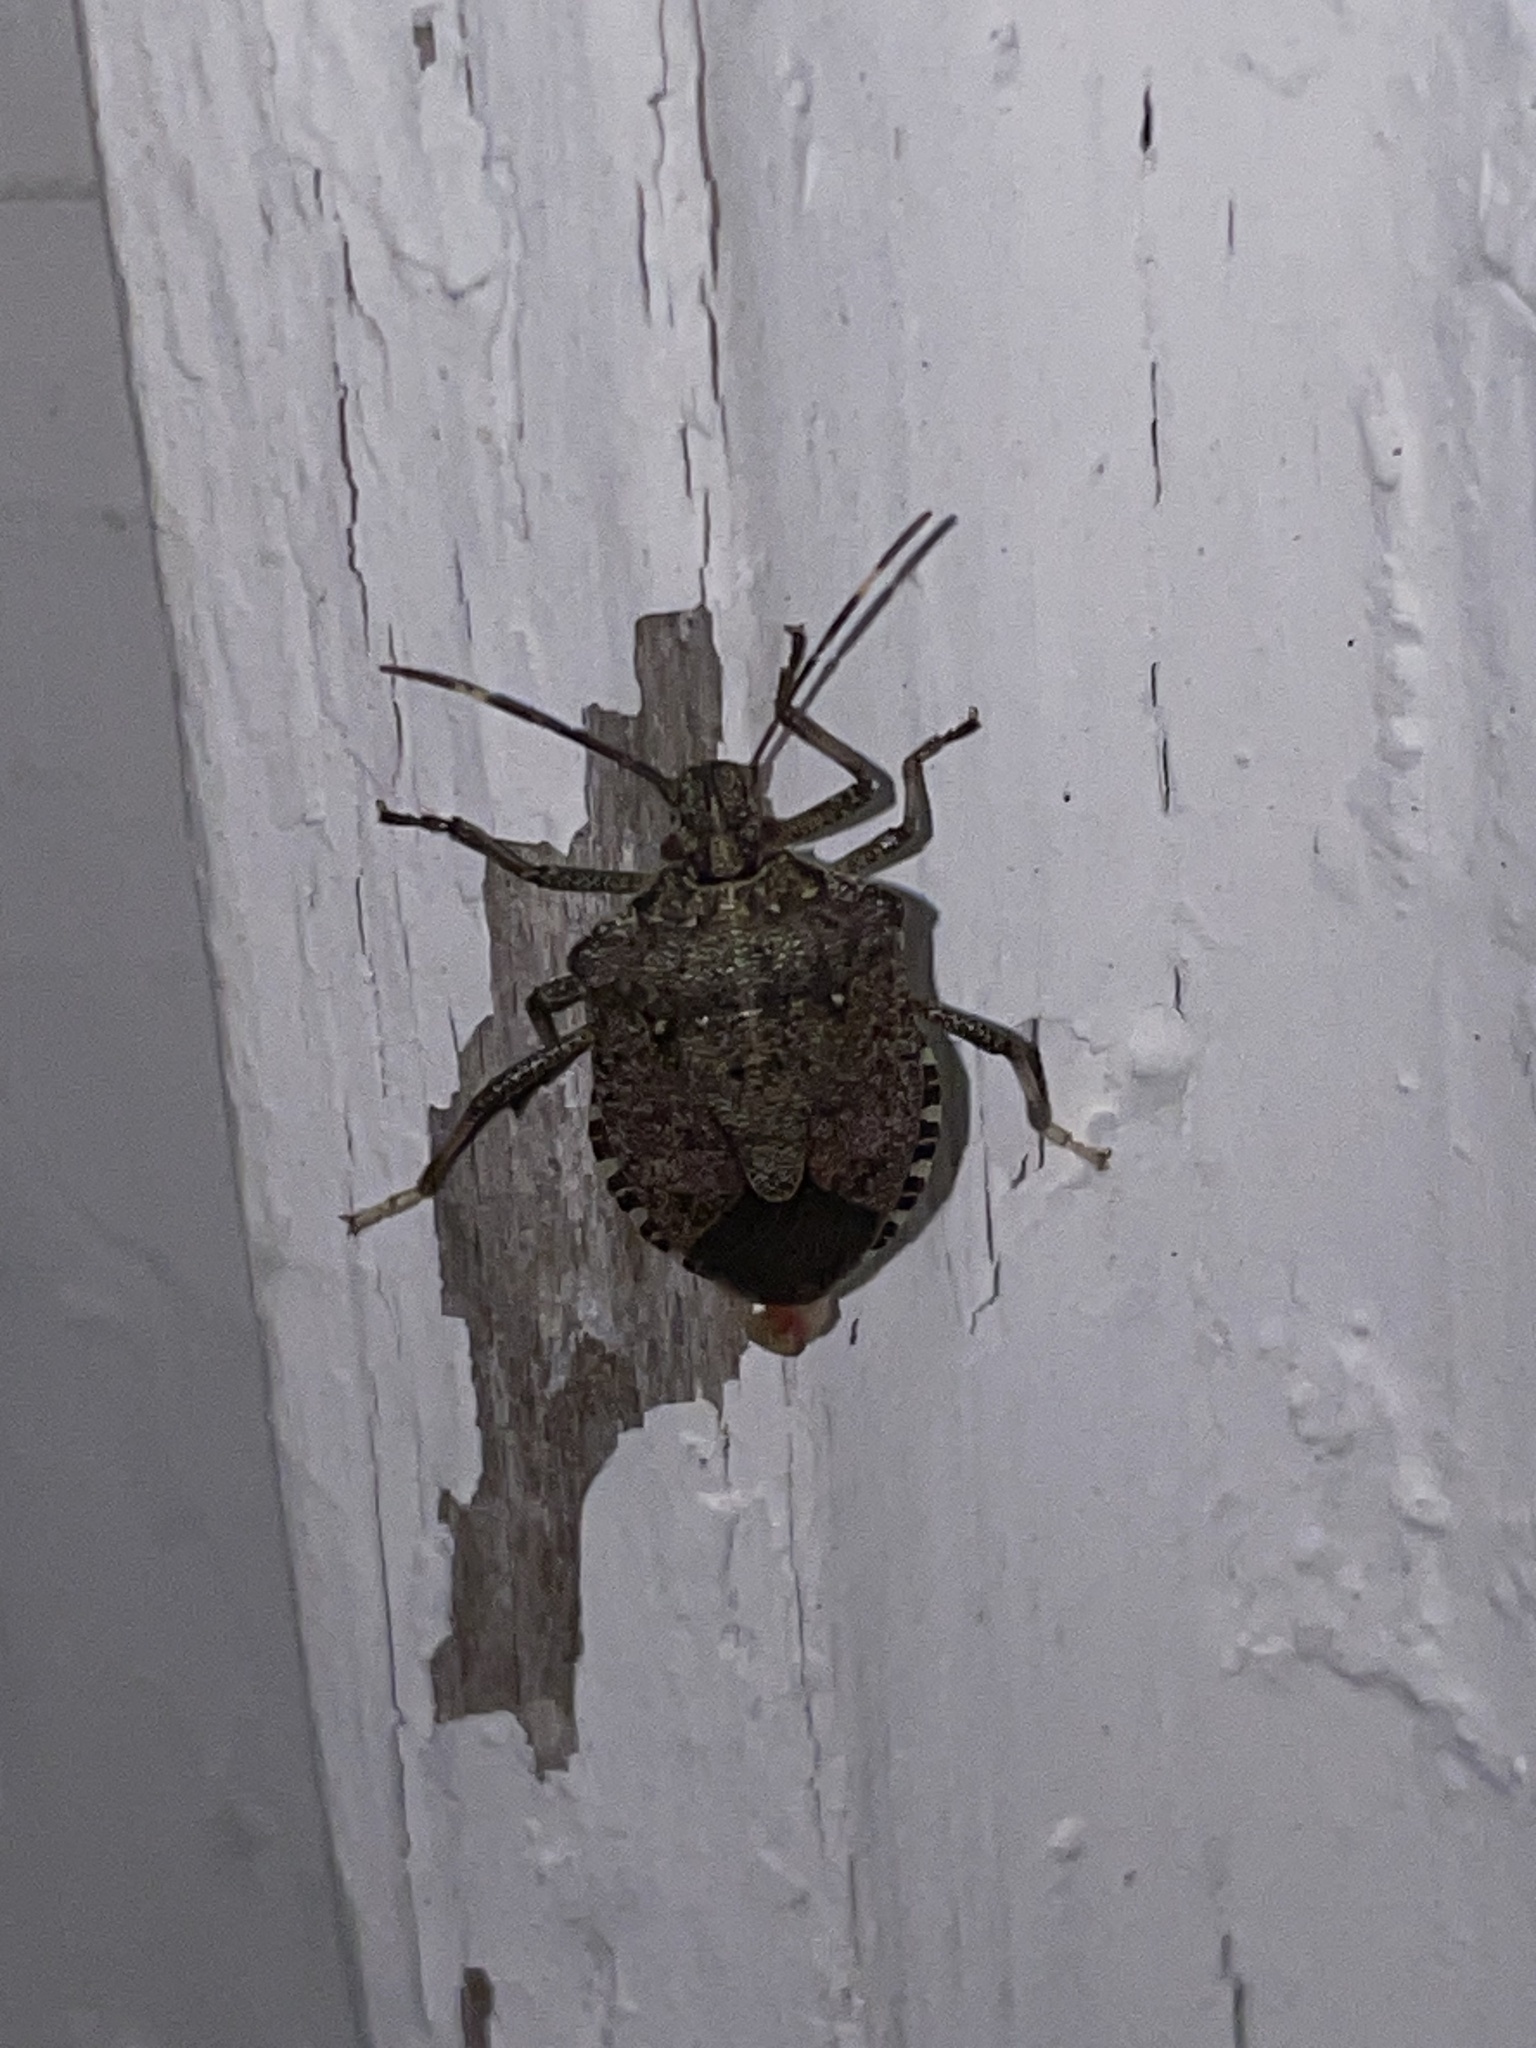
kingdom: Animalia
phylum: Arthropoda
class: Insecta
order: Hemiptera
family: Pentatomidae
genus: Halyomorpha
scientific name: Halyomorpha halys
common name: Brown marmorated stink bug
